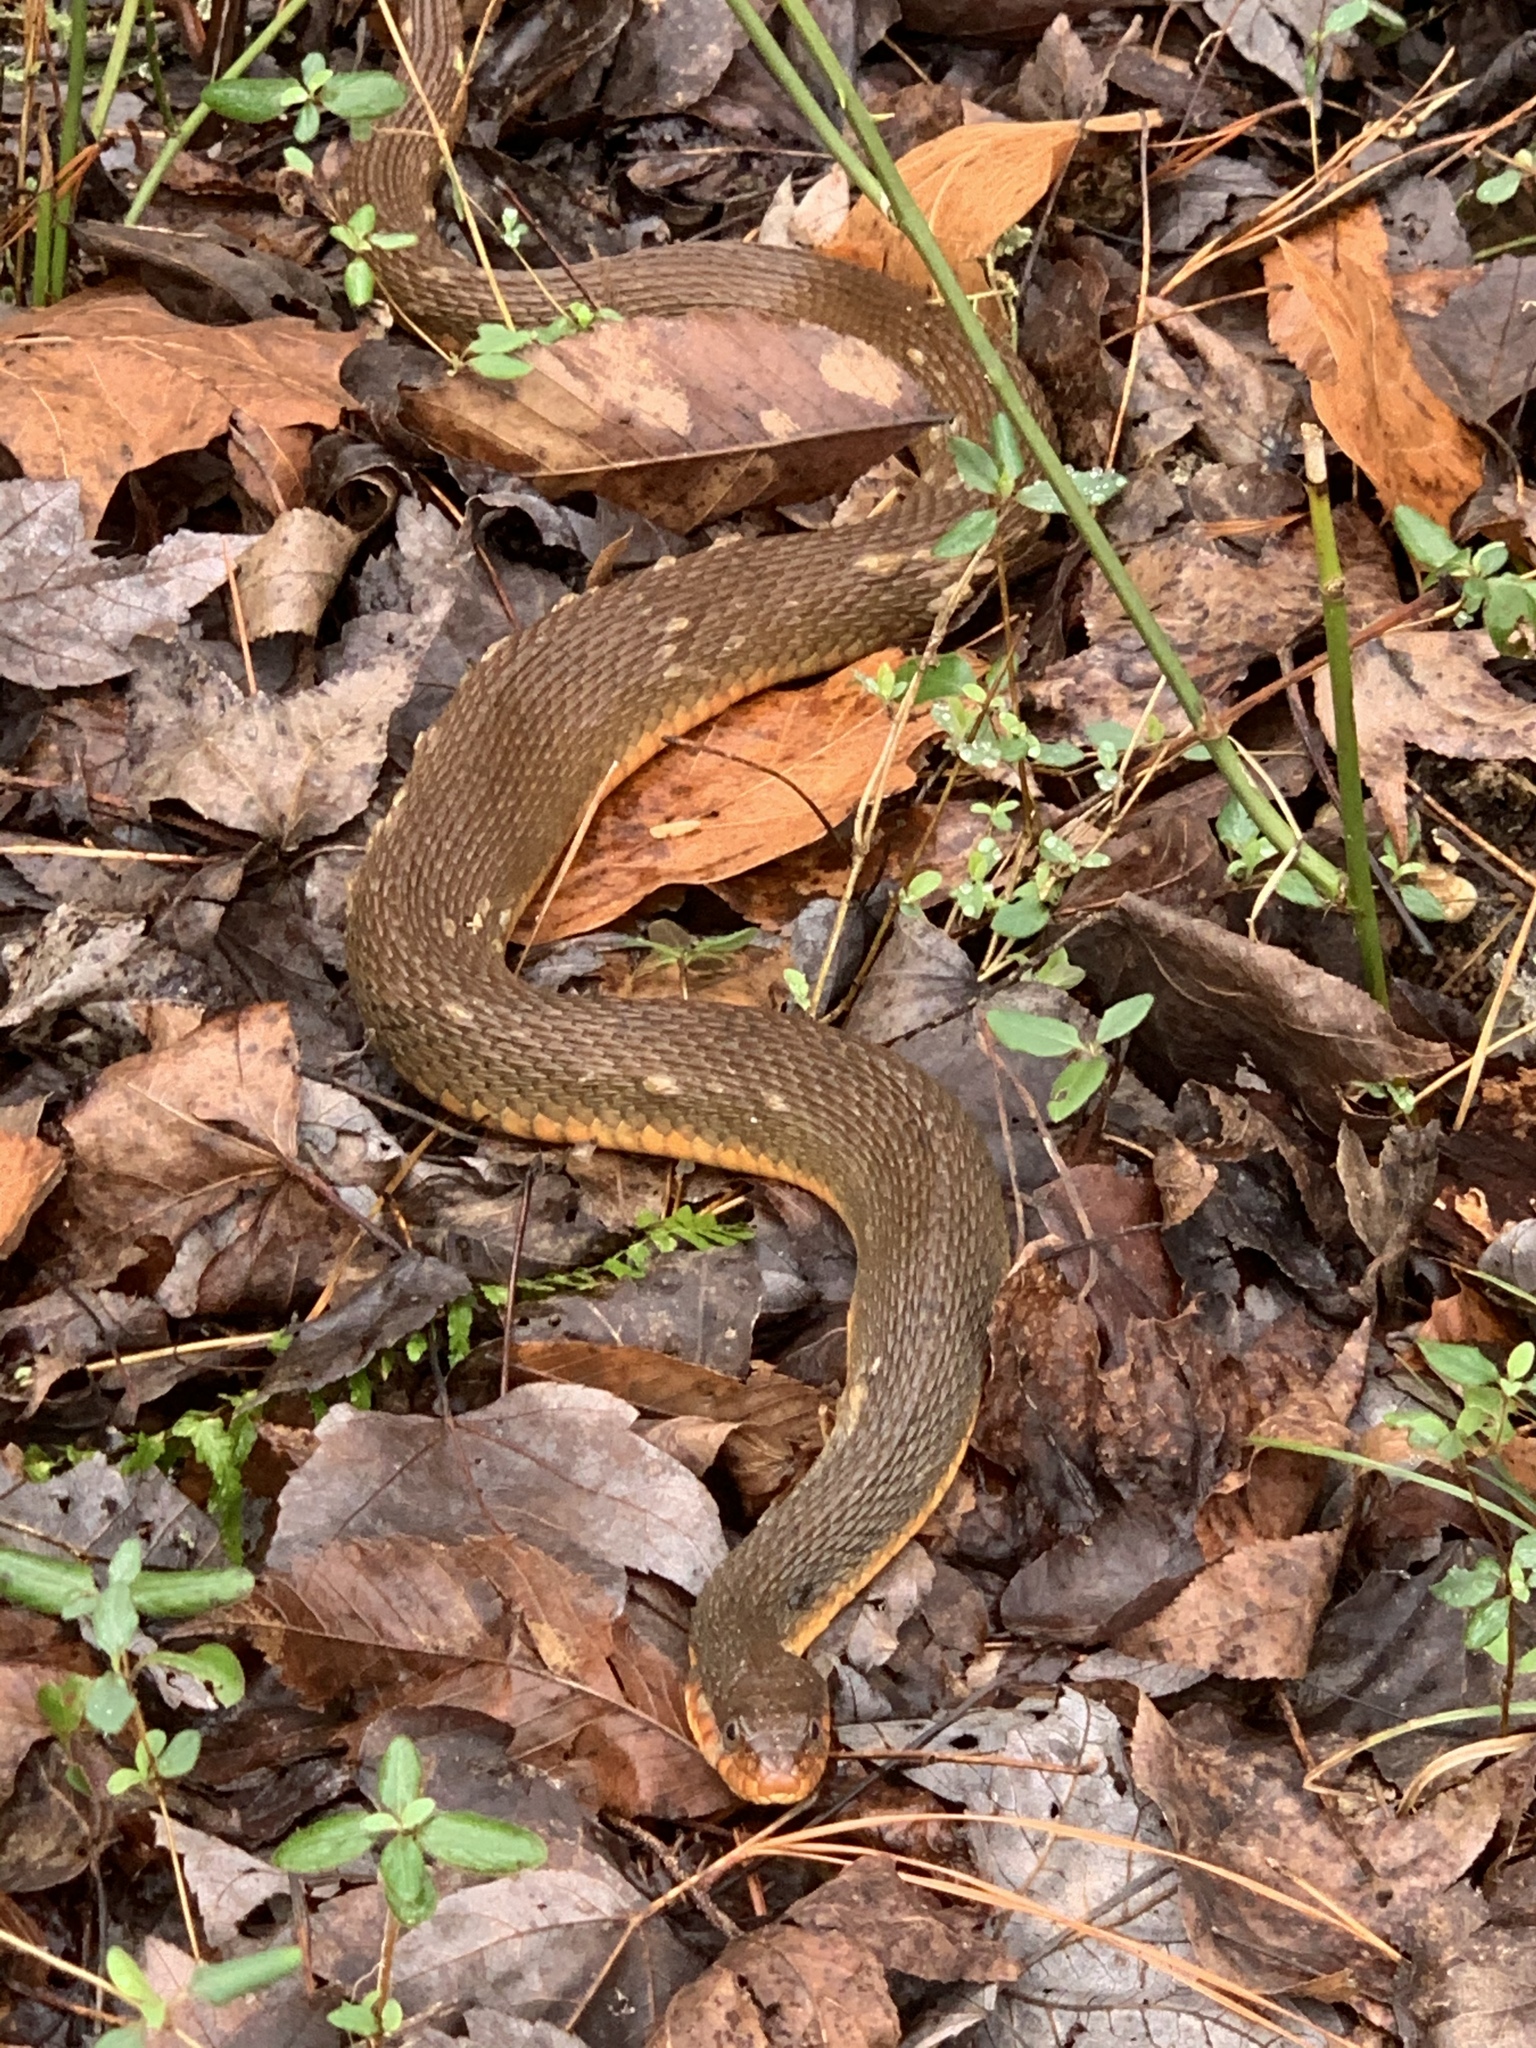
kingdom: Animalia
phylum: Chordata
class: Squamata
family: Colubridae
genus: Nerodia
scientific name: Nerodia erythrogaster
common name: Plainbelly water snake
